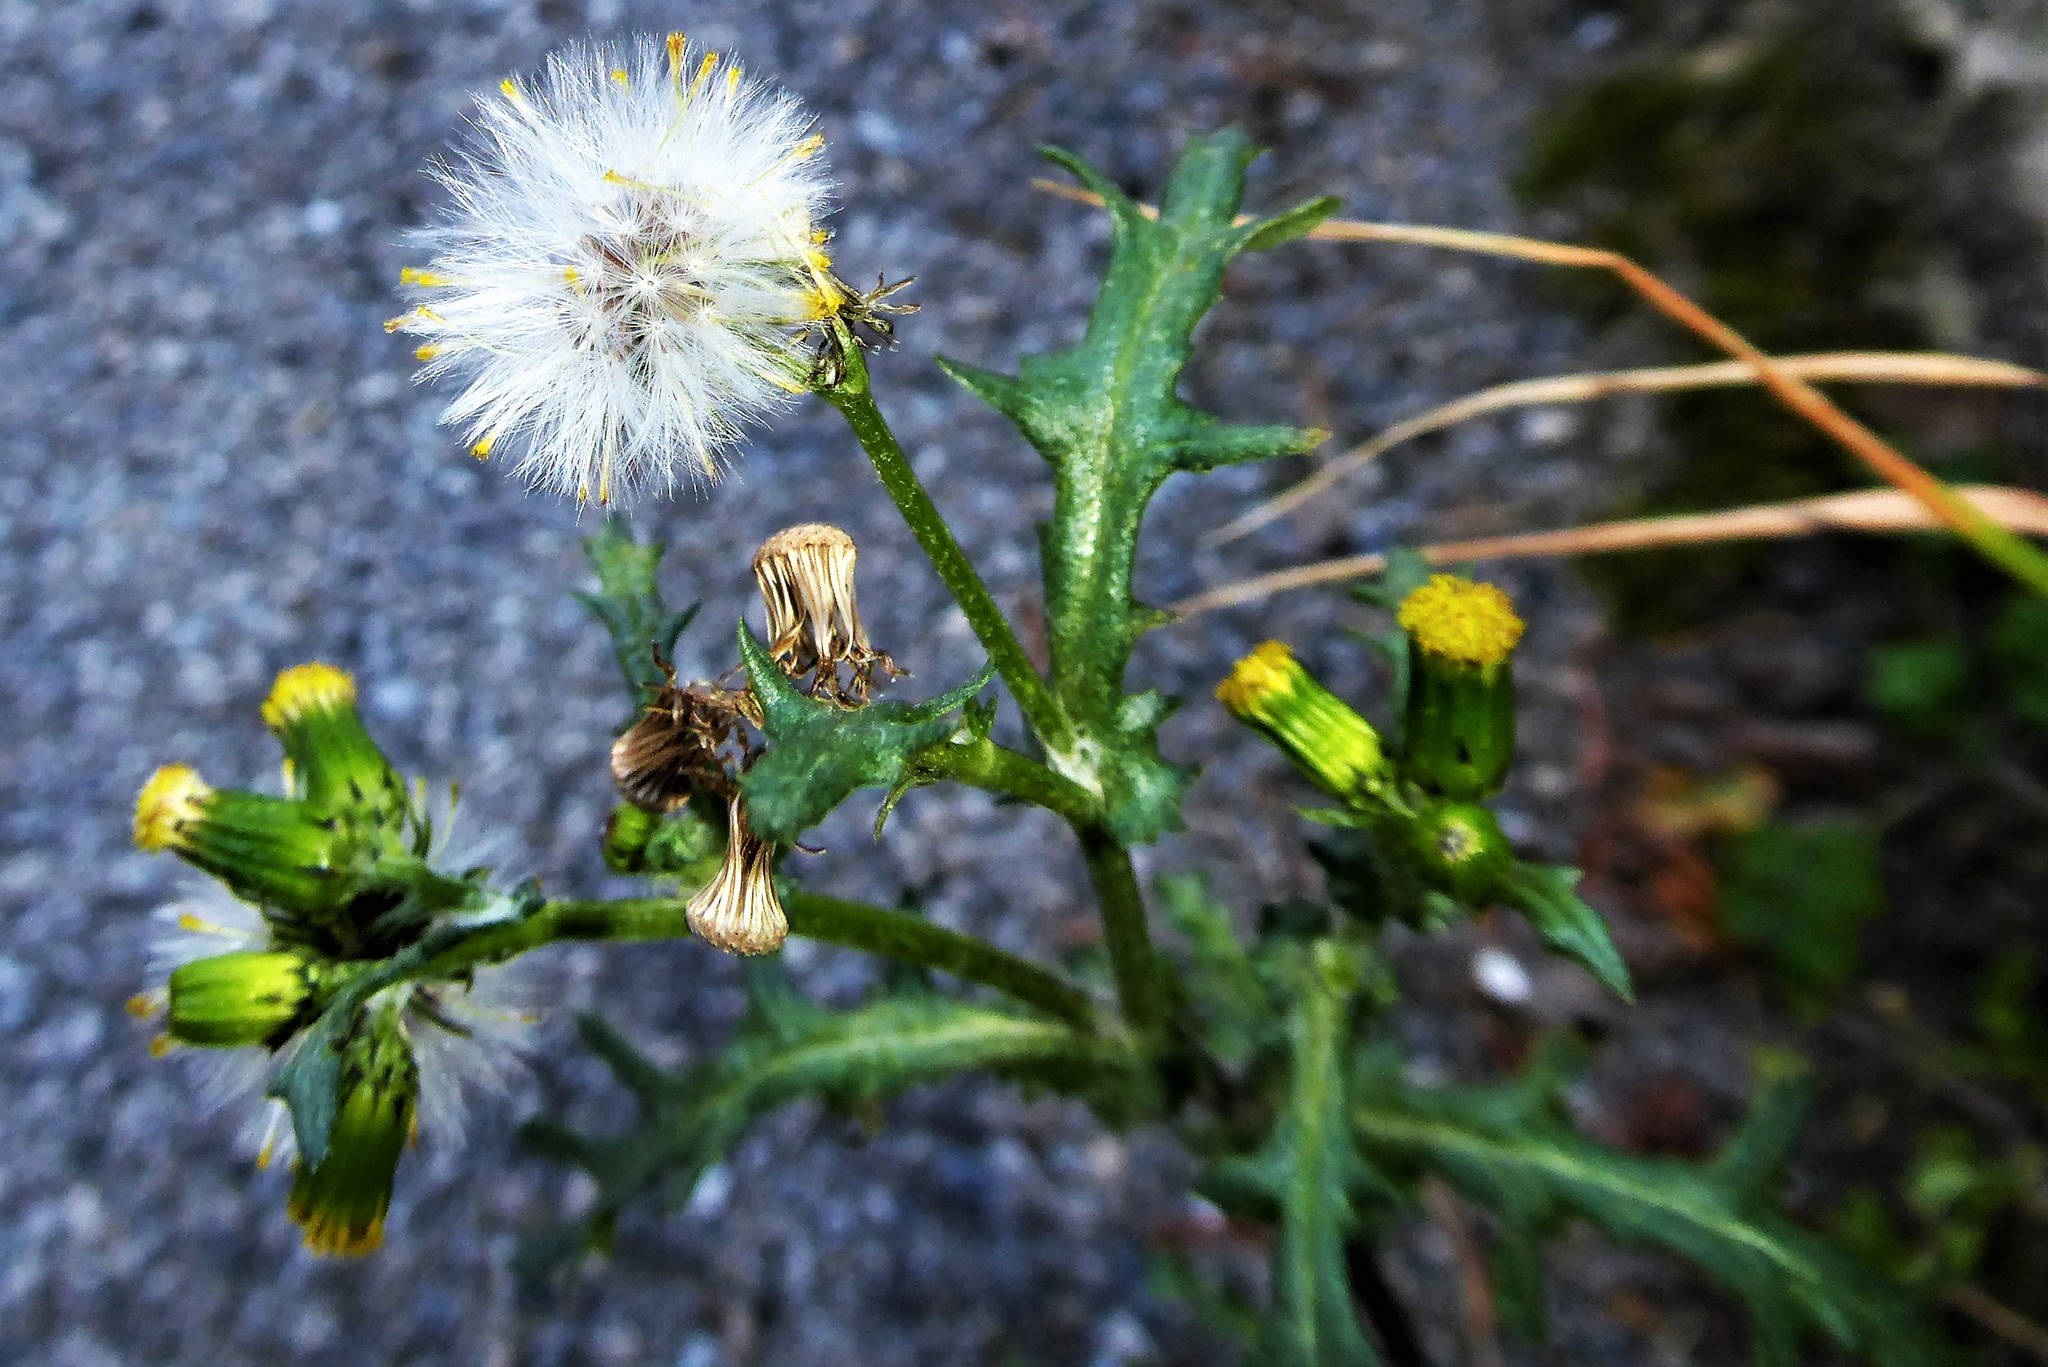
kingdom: Plantae
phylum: Tracheophyta
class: Magnoliopsida
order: Asterales
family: Asteraceae
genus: Senecio
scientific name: Senecio vulgaris
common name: Old-man-in-the-spring
